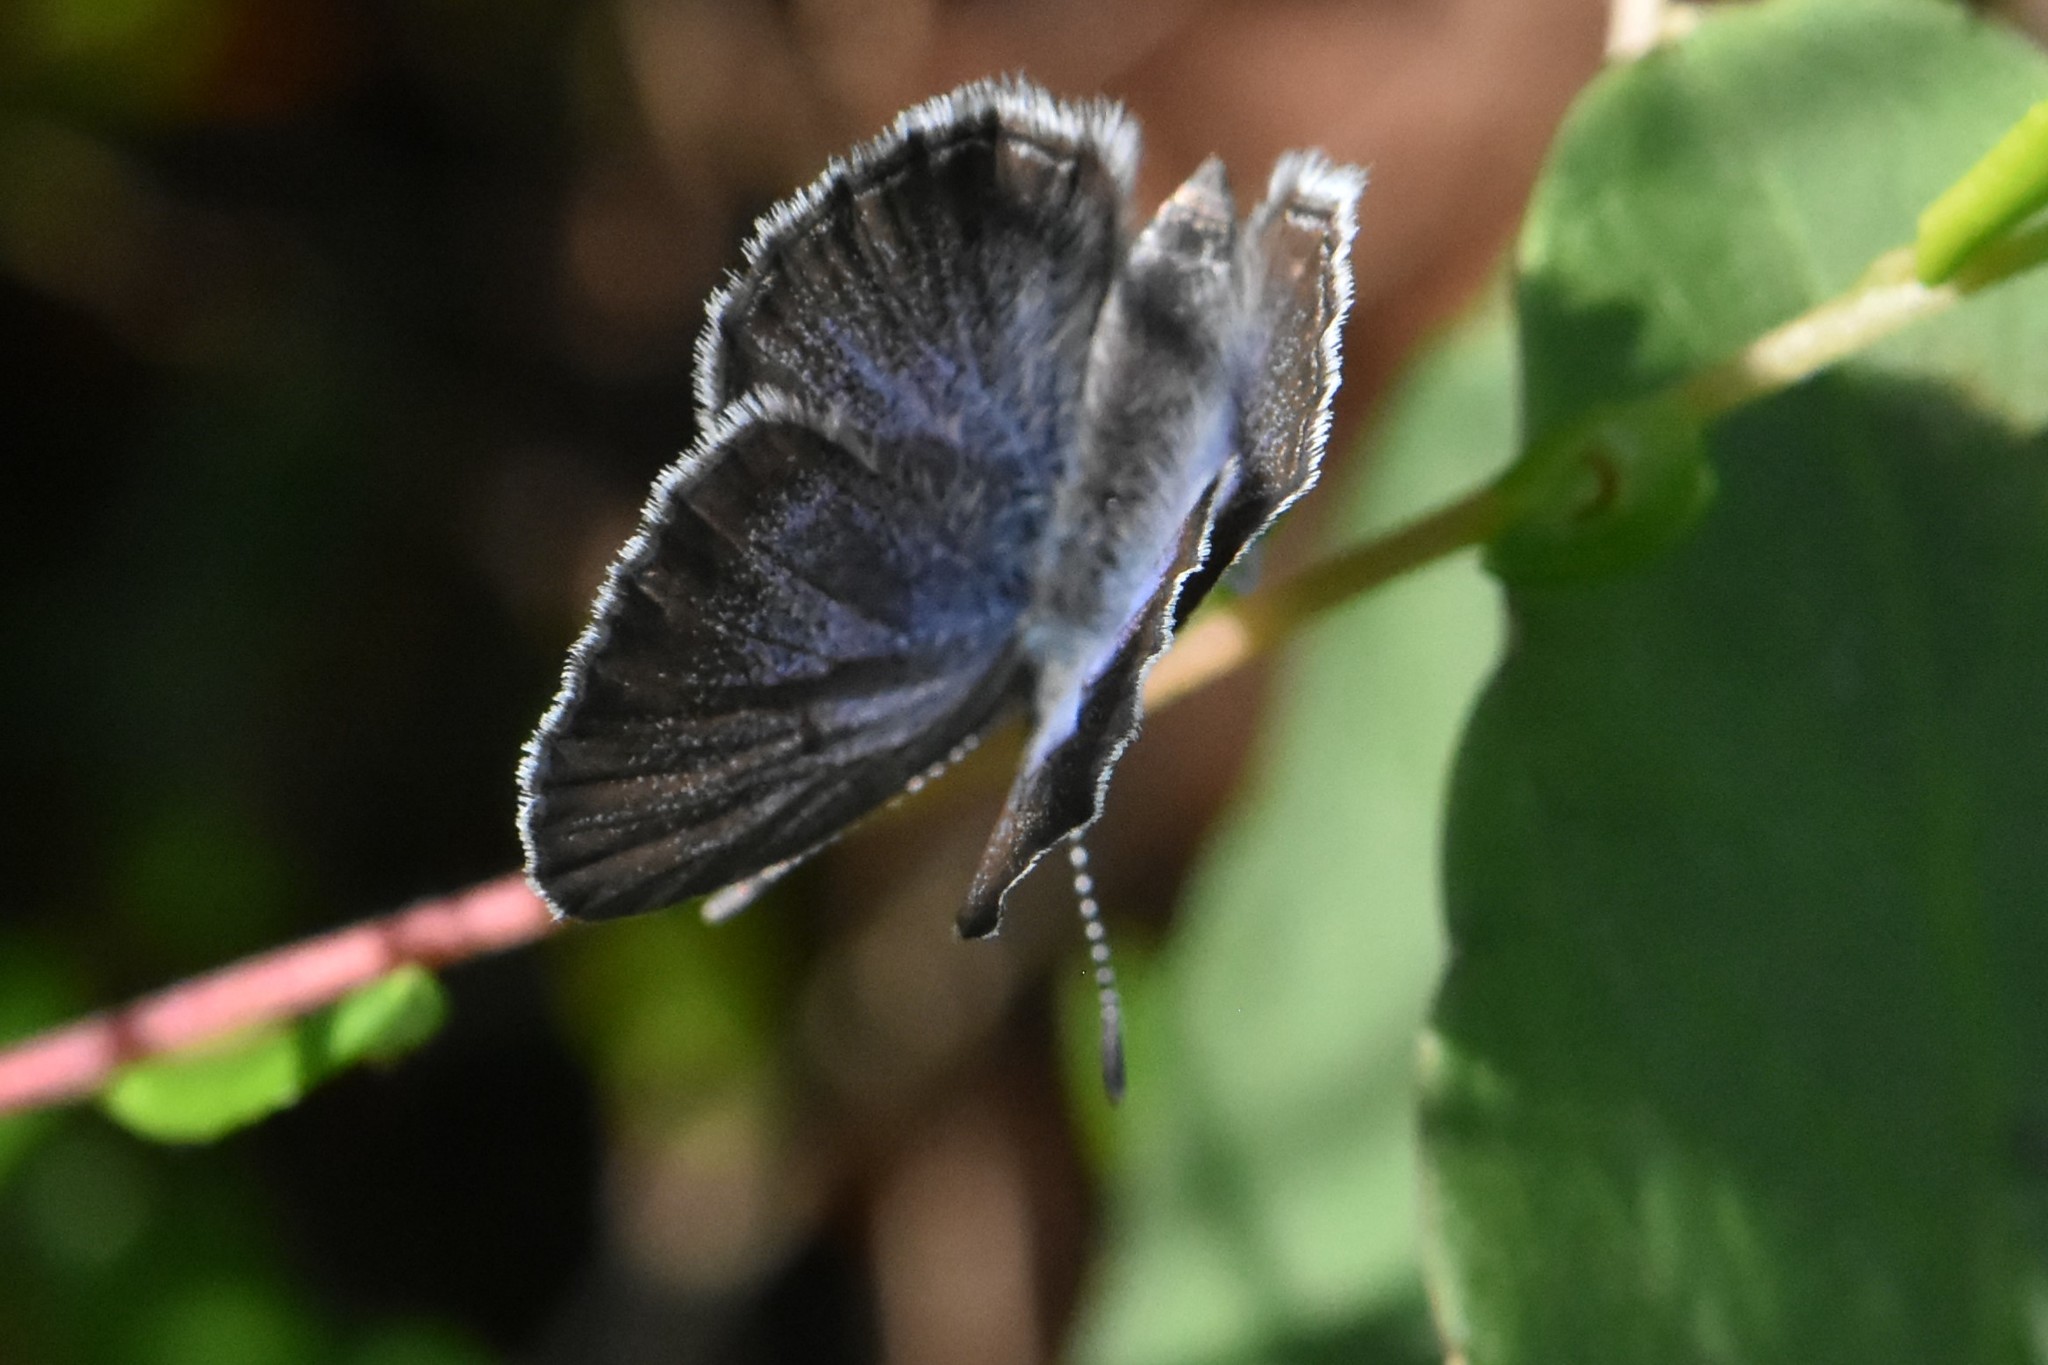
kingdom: Animalia
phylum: Arthropoda
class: Insecta
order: Lepidoptera
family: Lycaenidae
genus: Vacciniina
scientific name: Vacciniina optilete
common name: Cranberry blue
